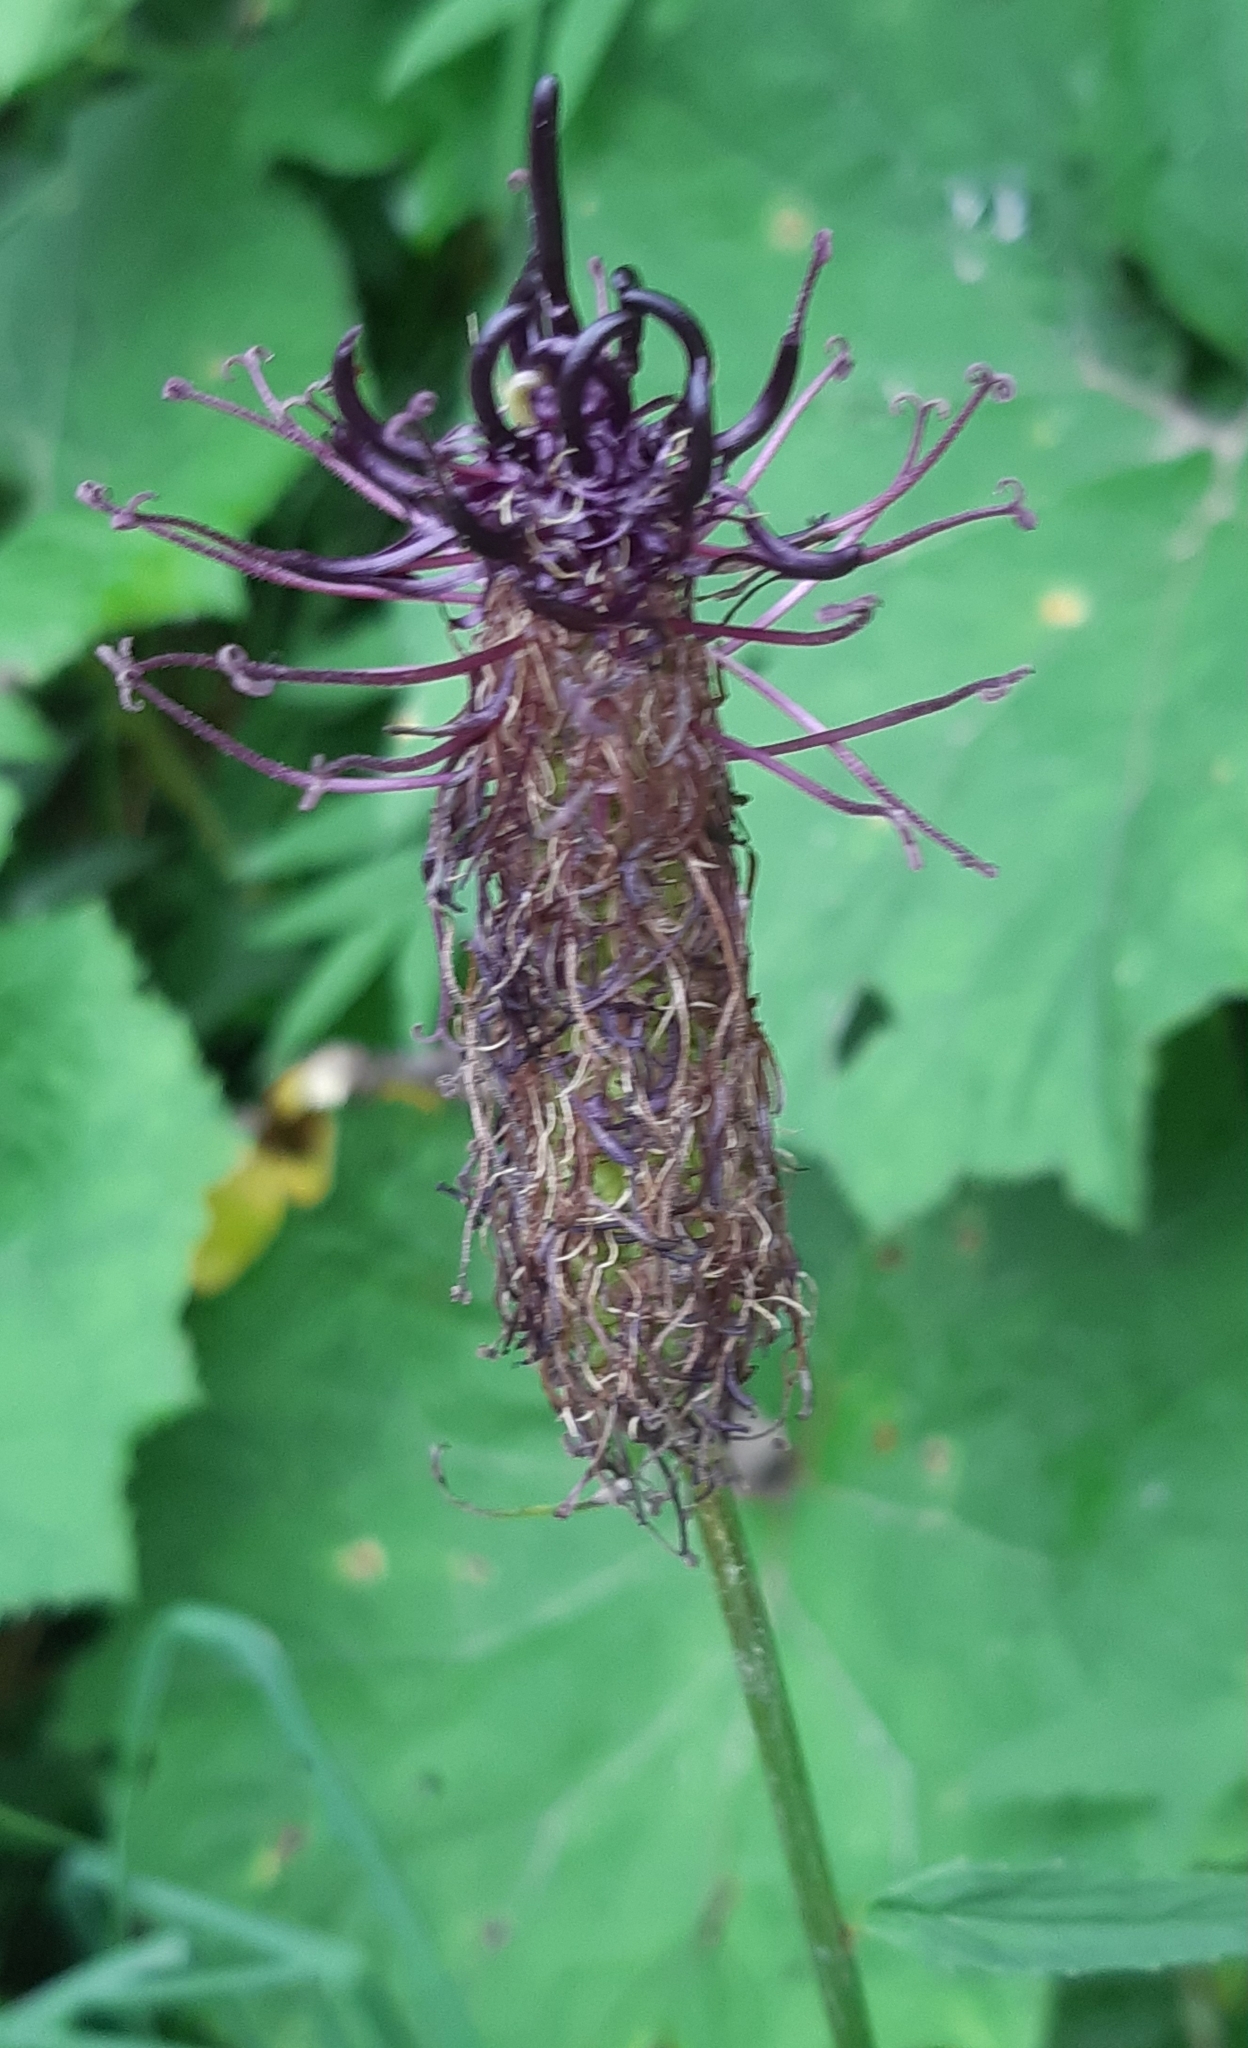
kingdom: Plantae
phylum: Tracheophyta
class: Magnoliopsida
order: Asterales
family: Campanulaceae
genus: Phyteuma
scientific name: Phyteuma ovatum
